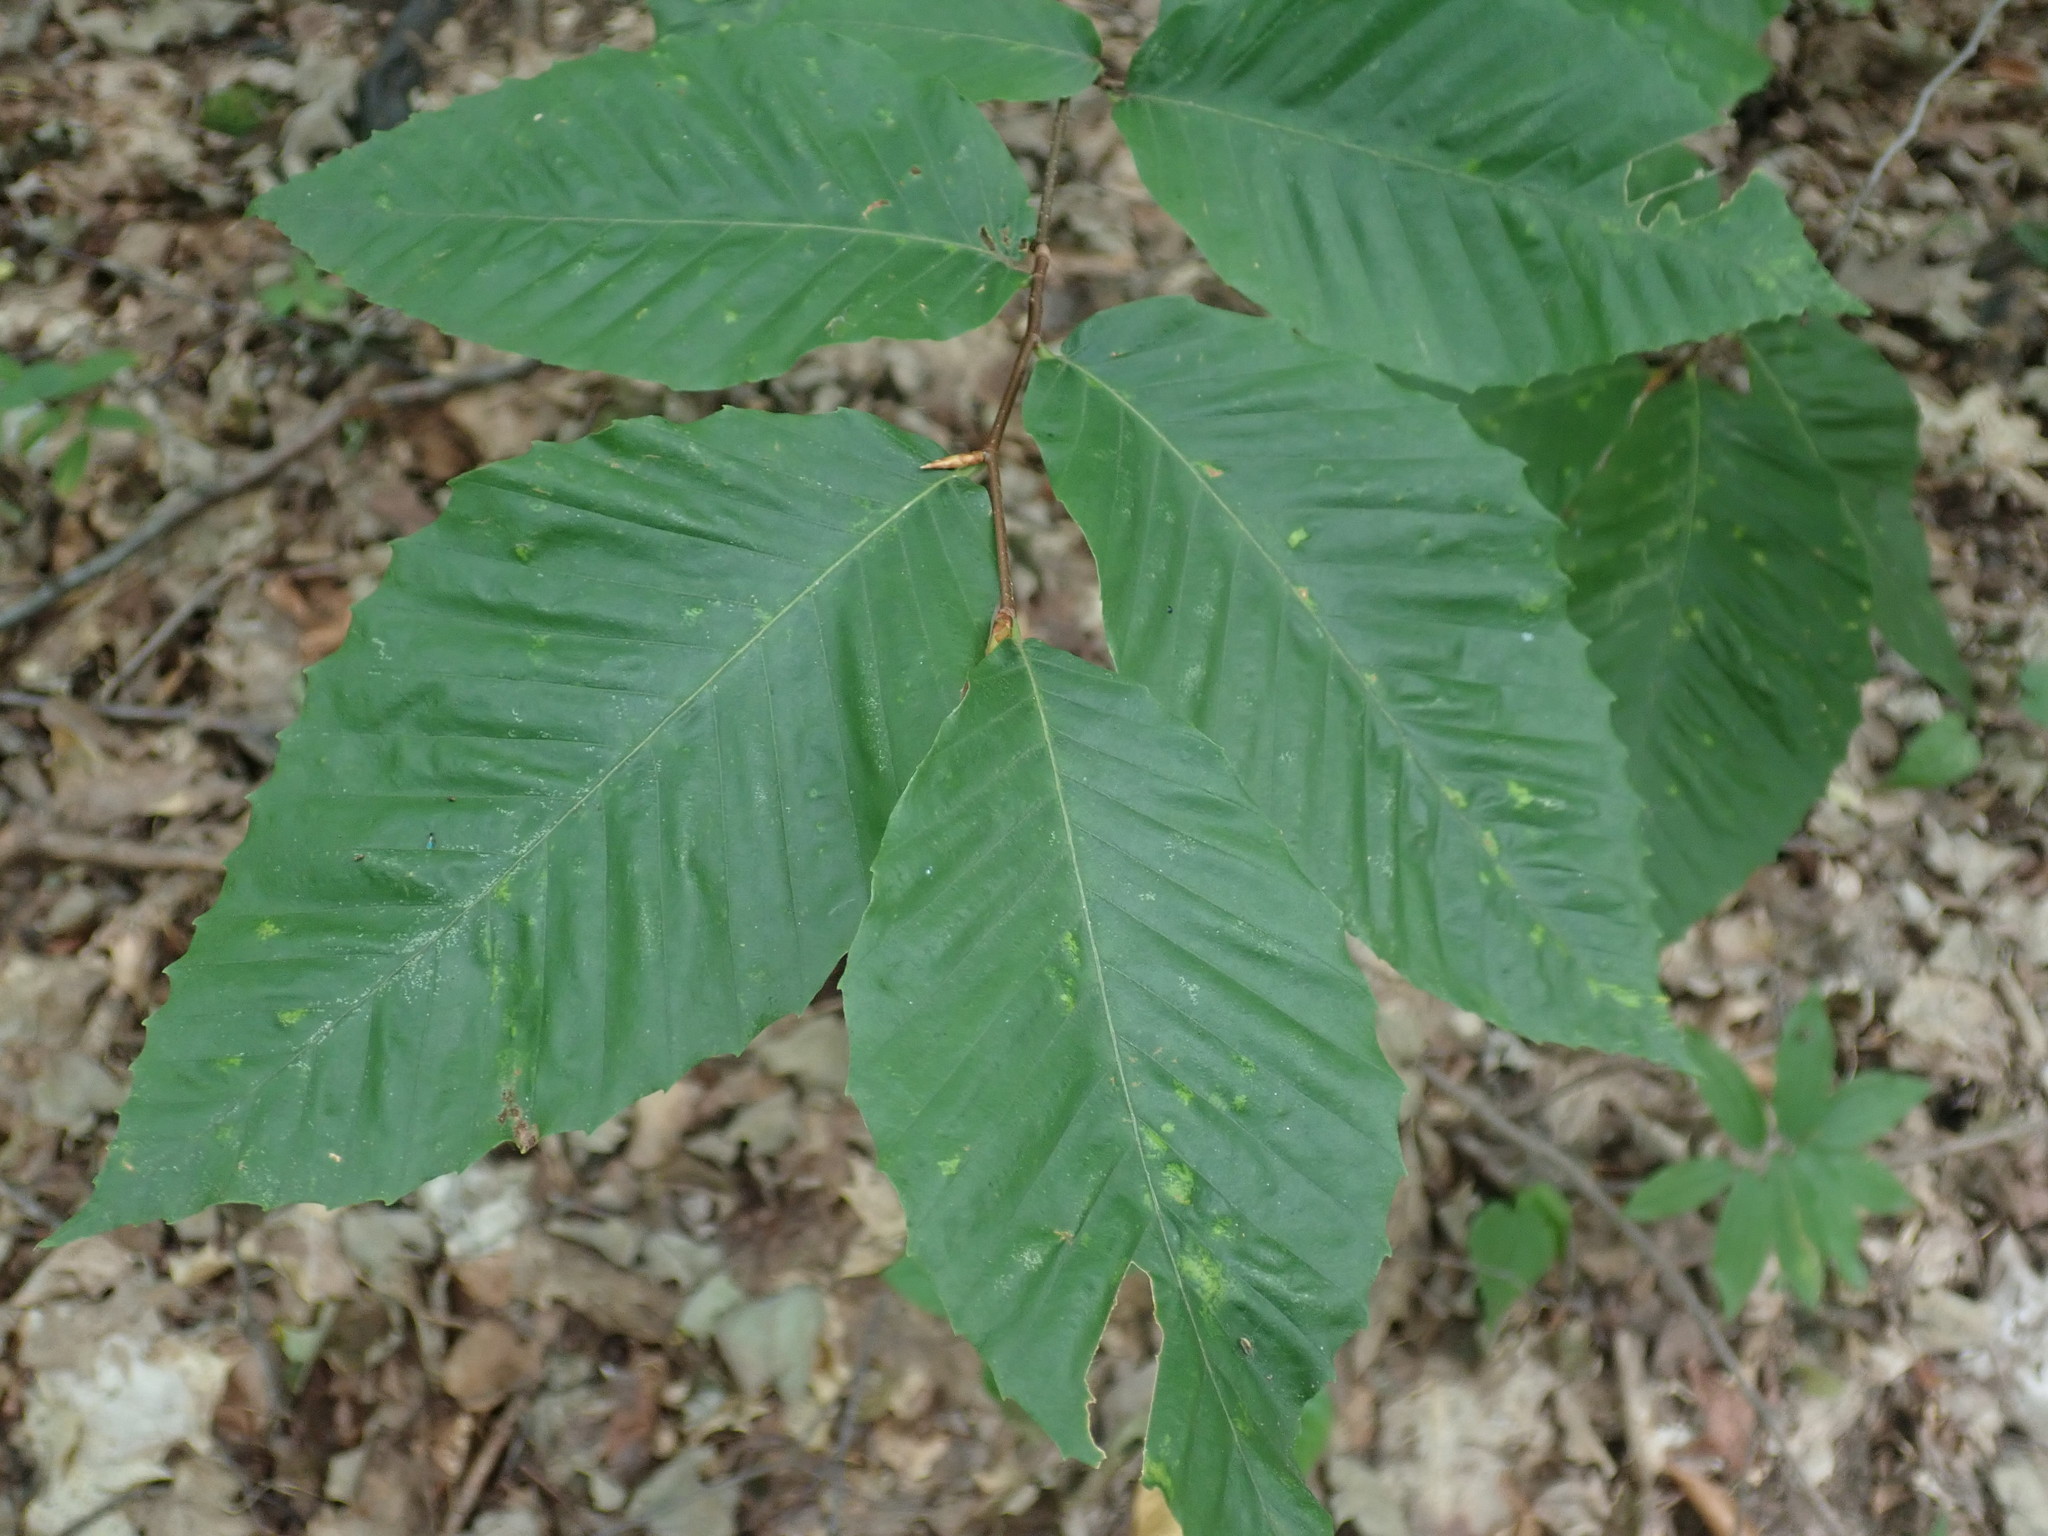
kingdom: Plantae
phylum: Tracheophyta
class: Magnoliopsida
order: Fagales
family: Fagaceae
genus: Fagus
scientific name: Fagus grandifolia
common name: American beech
